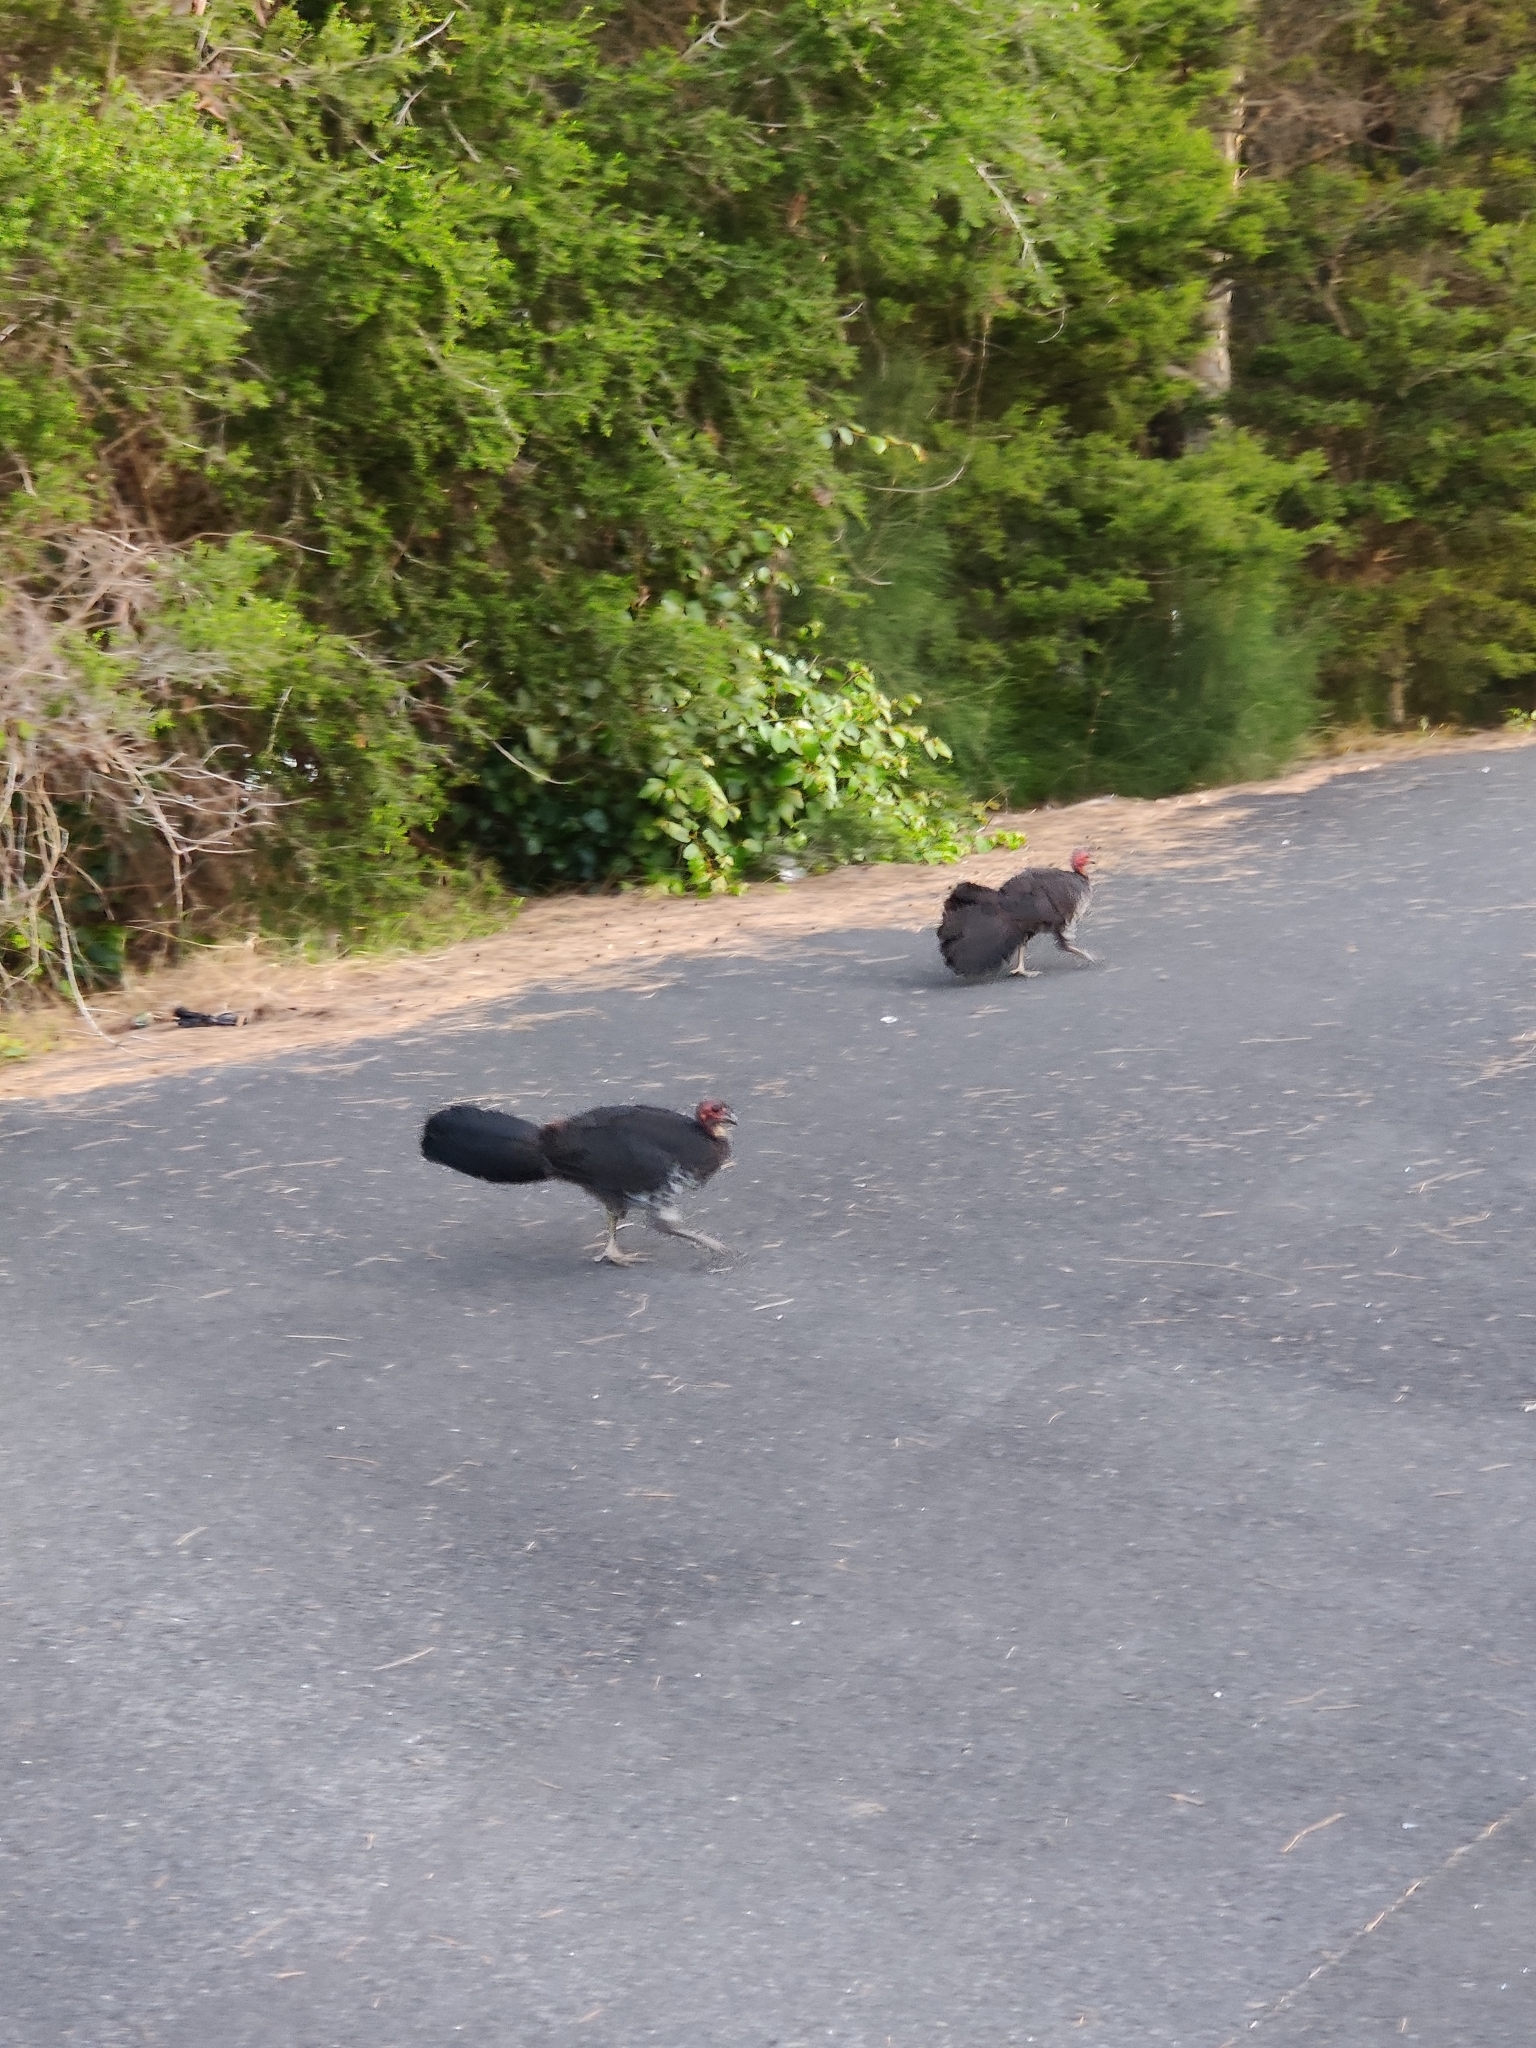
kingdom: Animalia
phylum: Chordata
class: Aves
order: Galliformes
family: Megapodiidae
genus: Alectura
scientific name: Alectura lathami
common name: Australian brushturkey
